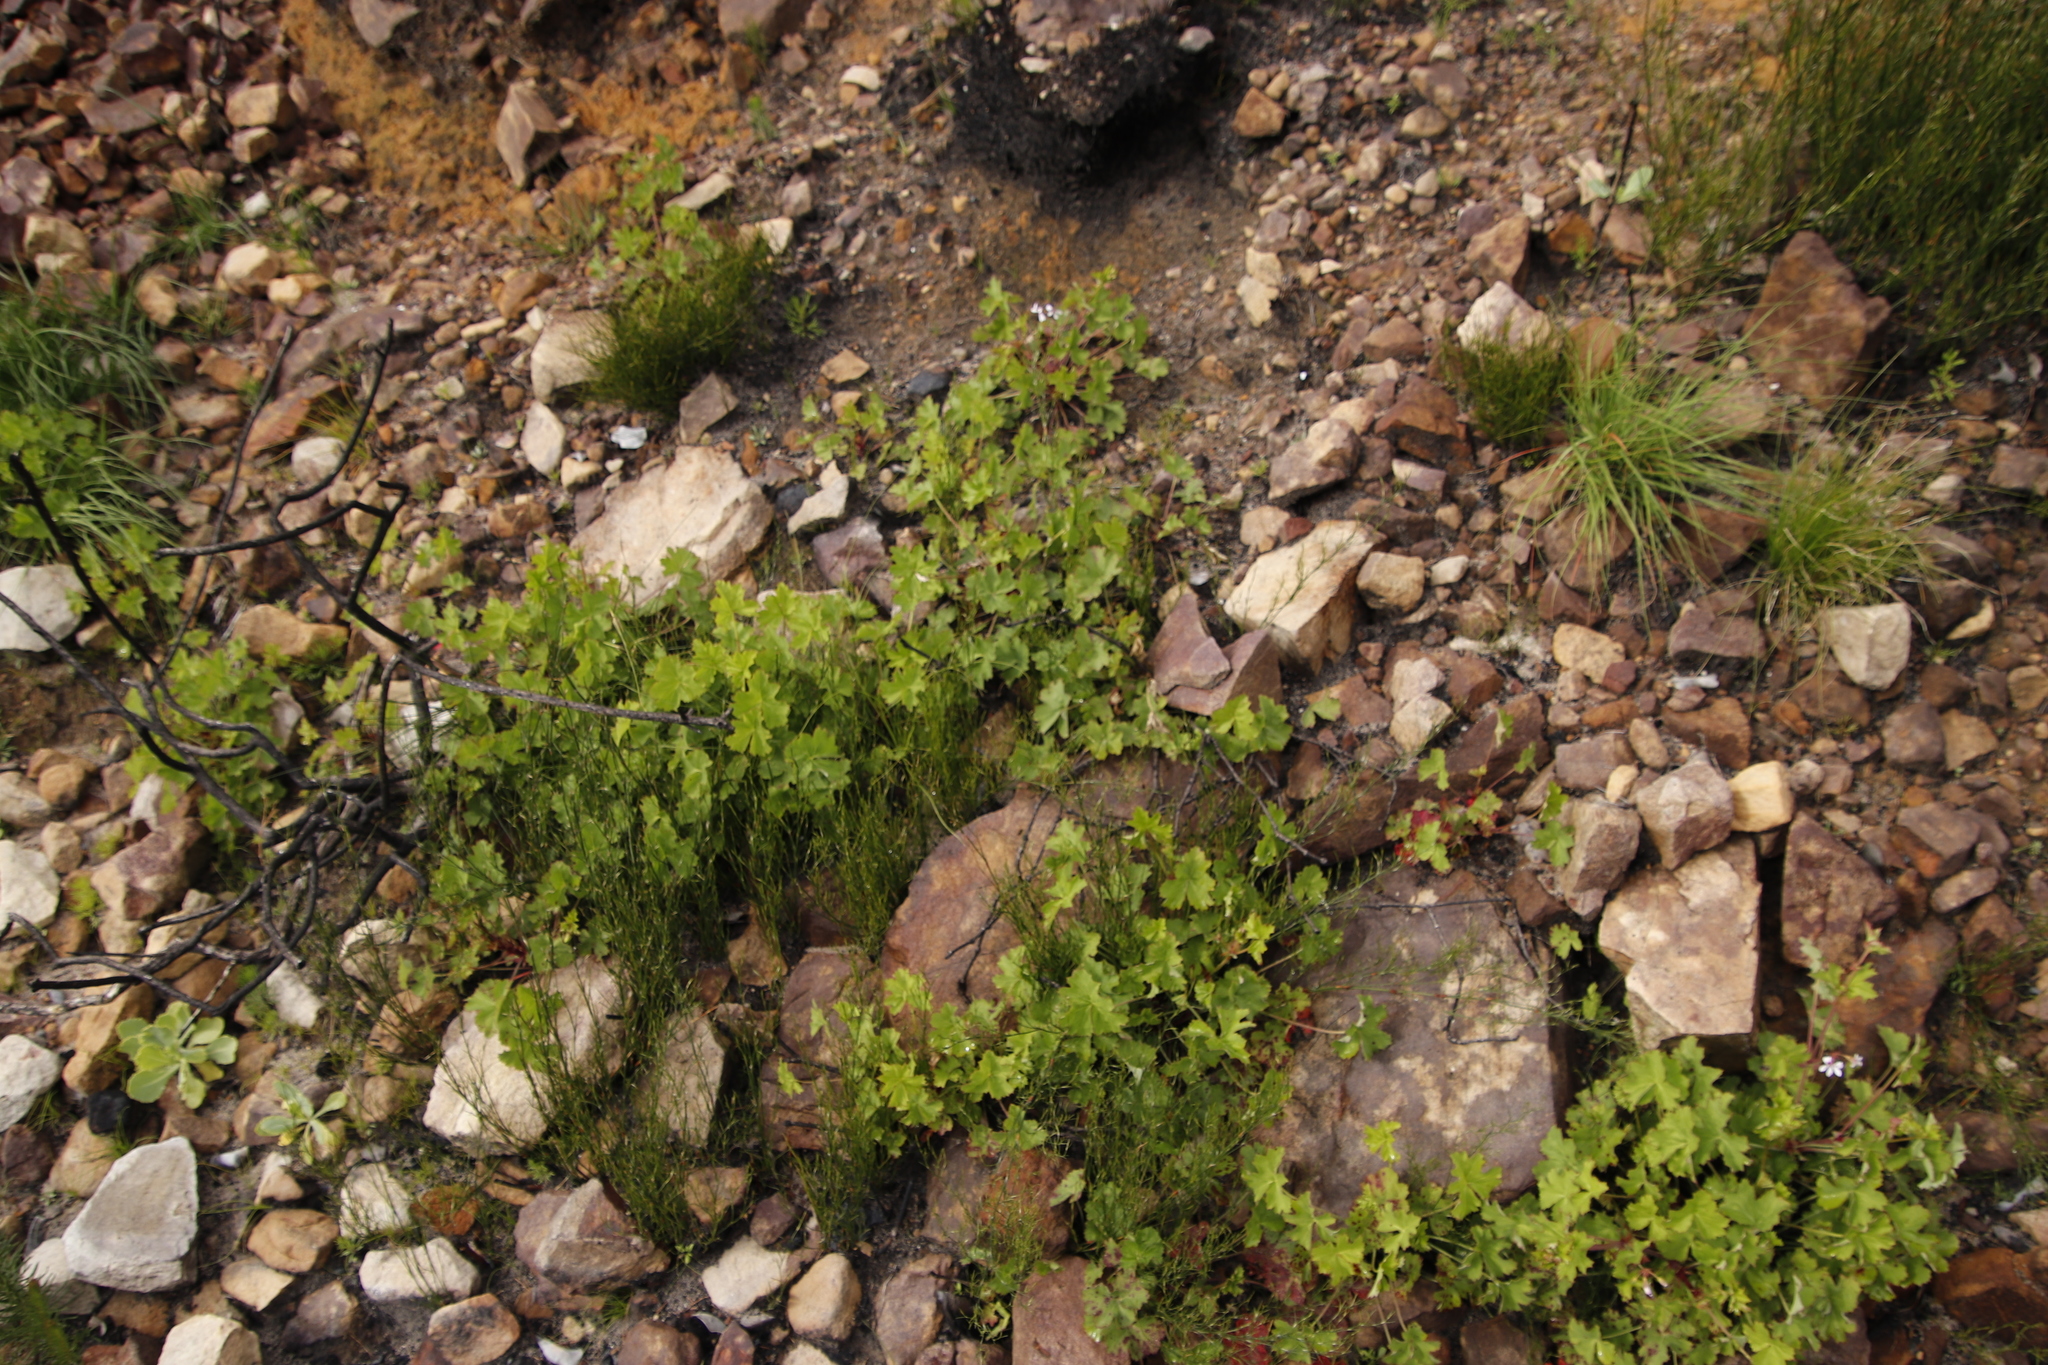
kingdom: Plantae
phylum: Tracheophyta
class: Magnoliopsida
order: Geraniales
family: Geraniaceae
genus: Pelargonium
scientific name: Pelargonium patulum
